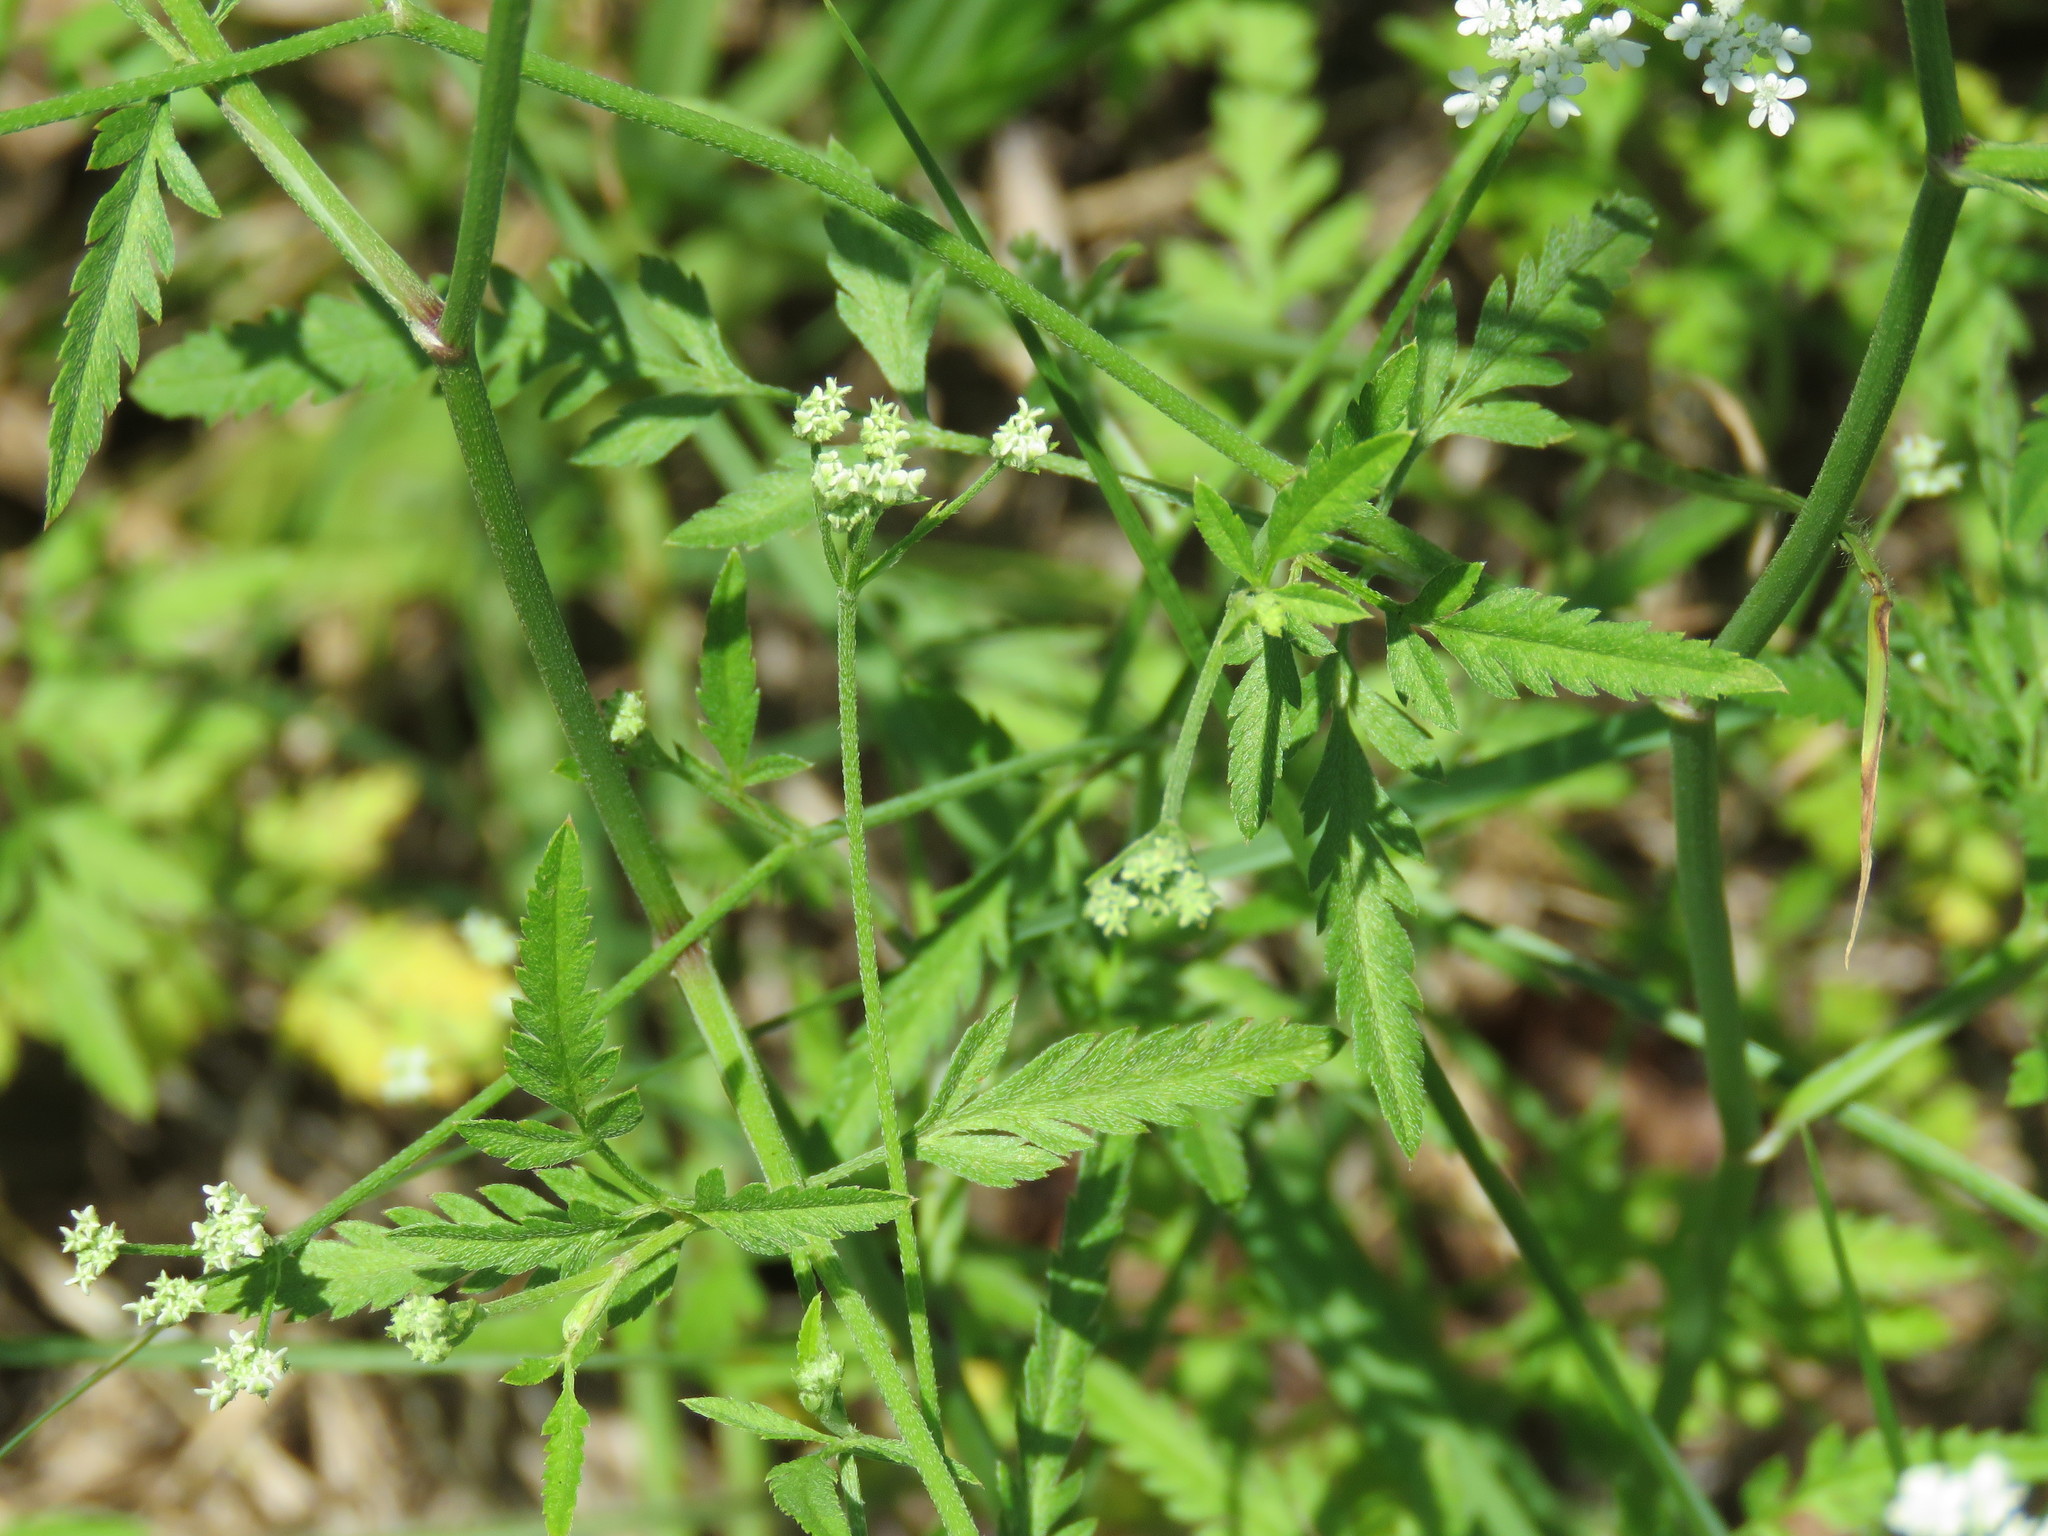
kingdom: Plantae
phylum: Tracheophyta
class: Magnoliopsida
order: Apiales
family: Apiaceae
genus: Torilis
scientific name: Torilis arvensis
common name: Spreading hedge-parsley
